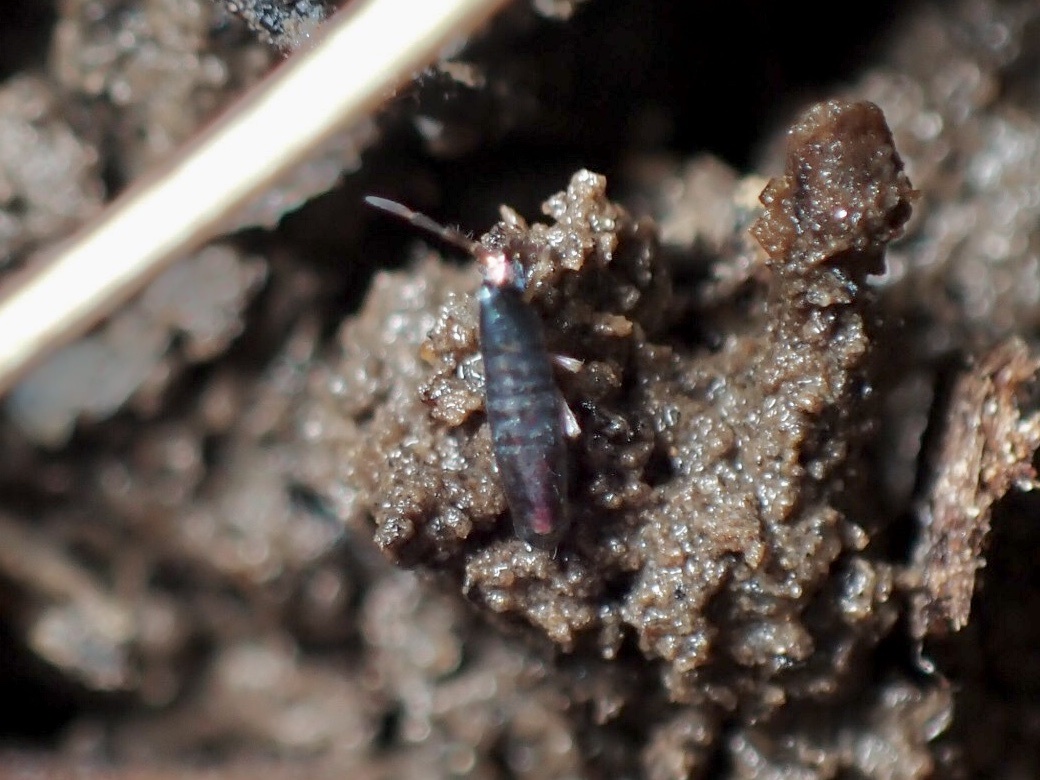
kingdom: Animalia
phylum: Arthropoda
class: Collembola
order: Entomobryomorpha
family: Entomobryidae
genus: Lepidocyrtus
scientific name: Lepidocyrtus paradoxus
